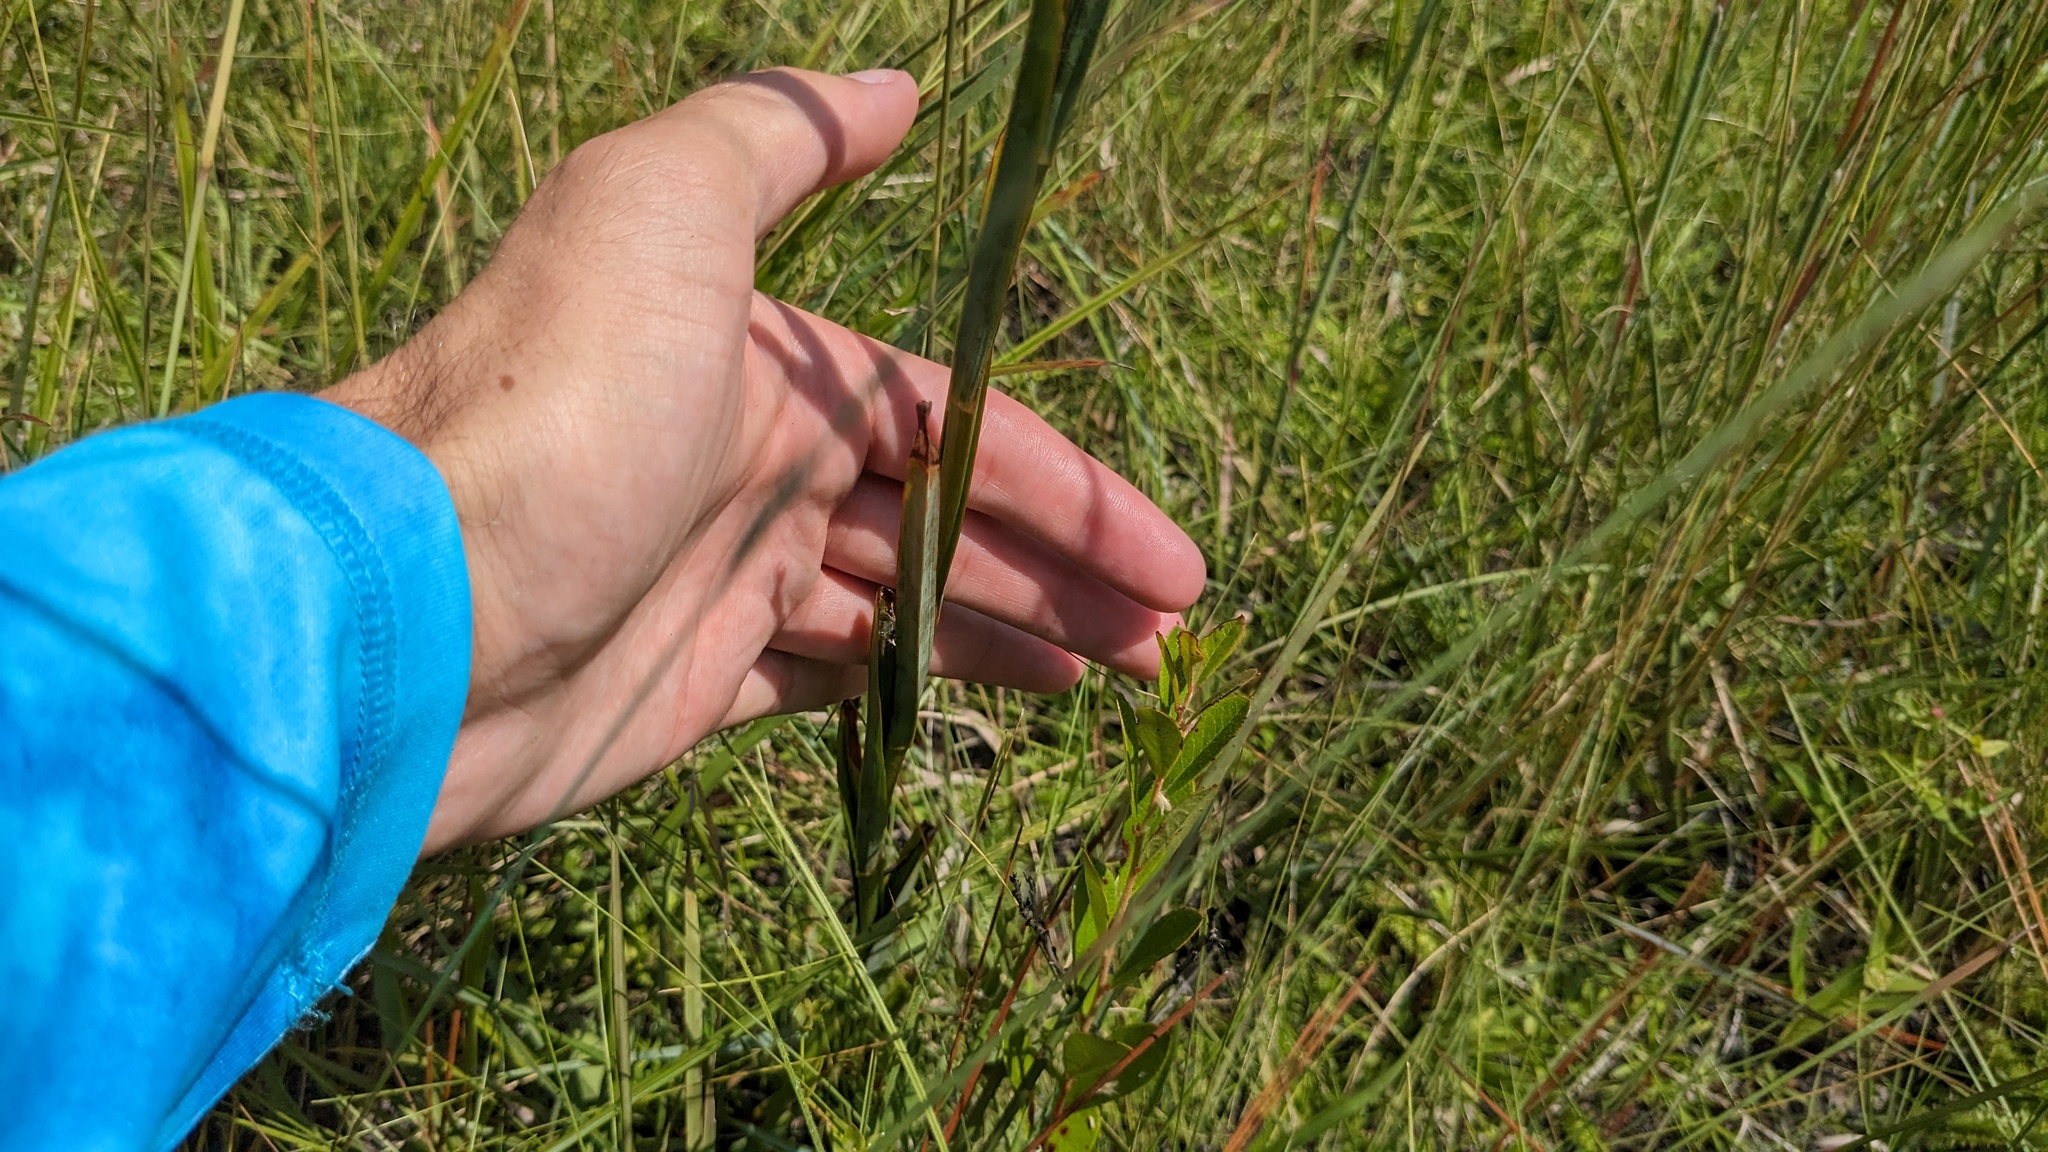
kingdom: Plantae
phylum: Tracheophyta
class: Liliopsida
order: Liliales
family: Melanthiaceae
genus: Zigadenus
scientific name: Zigadenus glaberrimus
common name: Sandbog death camas
